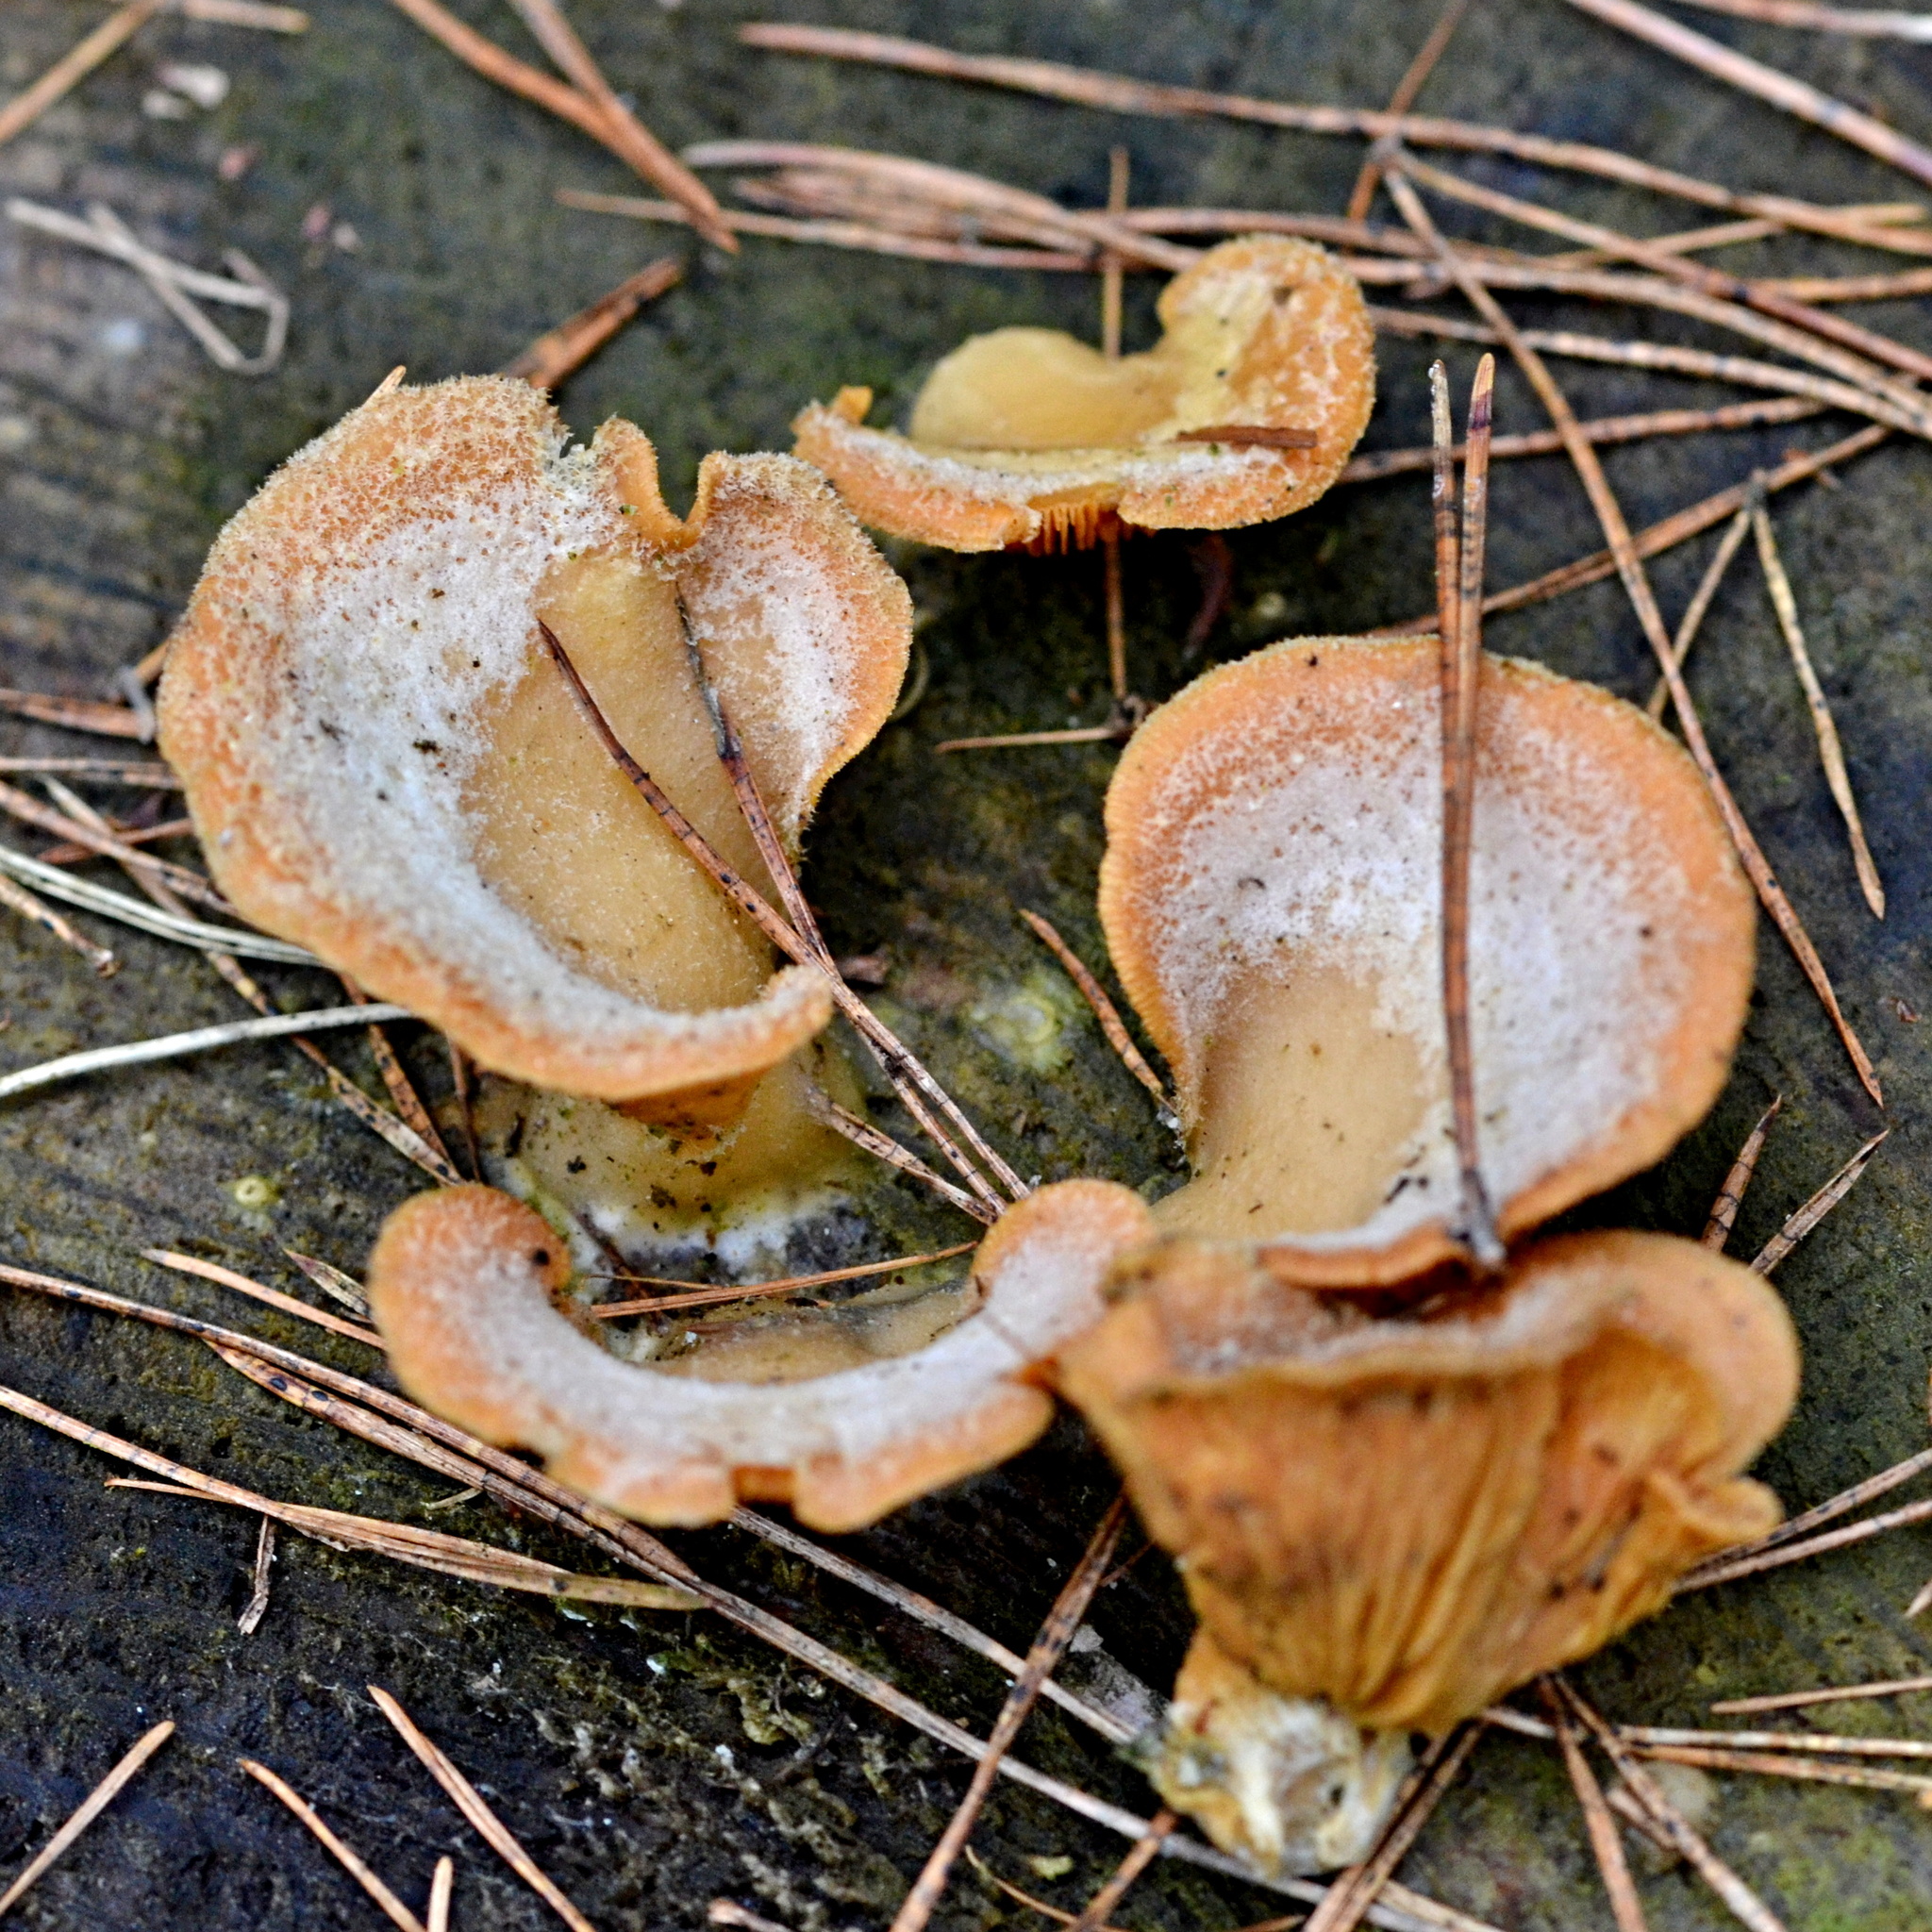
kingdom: Fungi
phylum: Basidiomycota
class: Agaricomycetes
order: Agaricales
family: Phyllotopsidaceae
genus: Phyllotopsis
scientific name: Phyllotopsis nidulans
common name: Orange mock oyster
